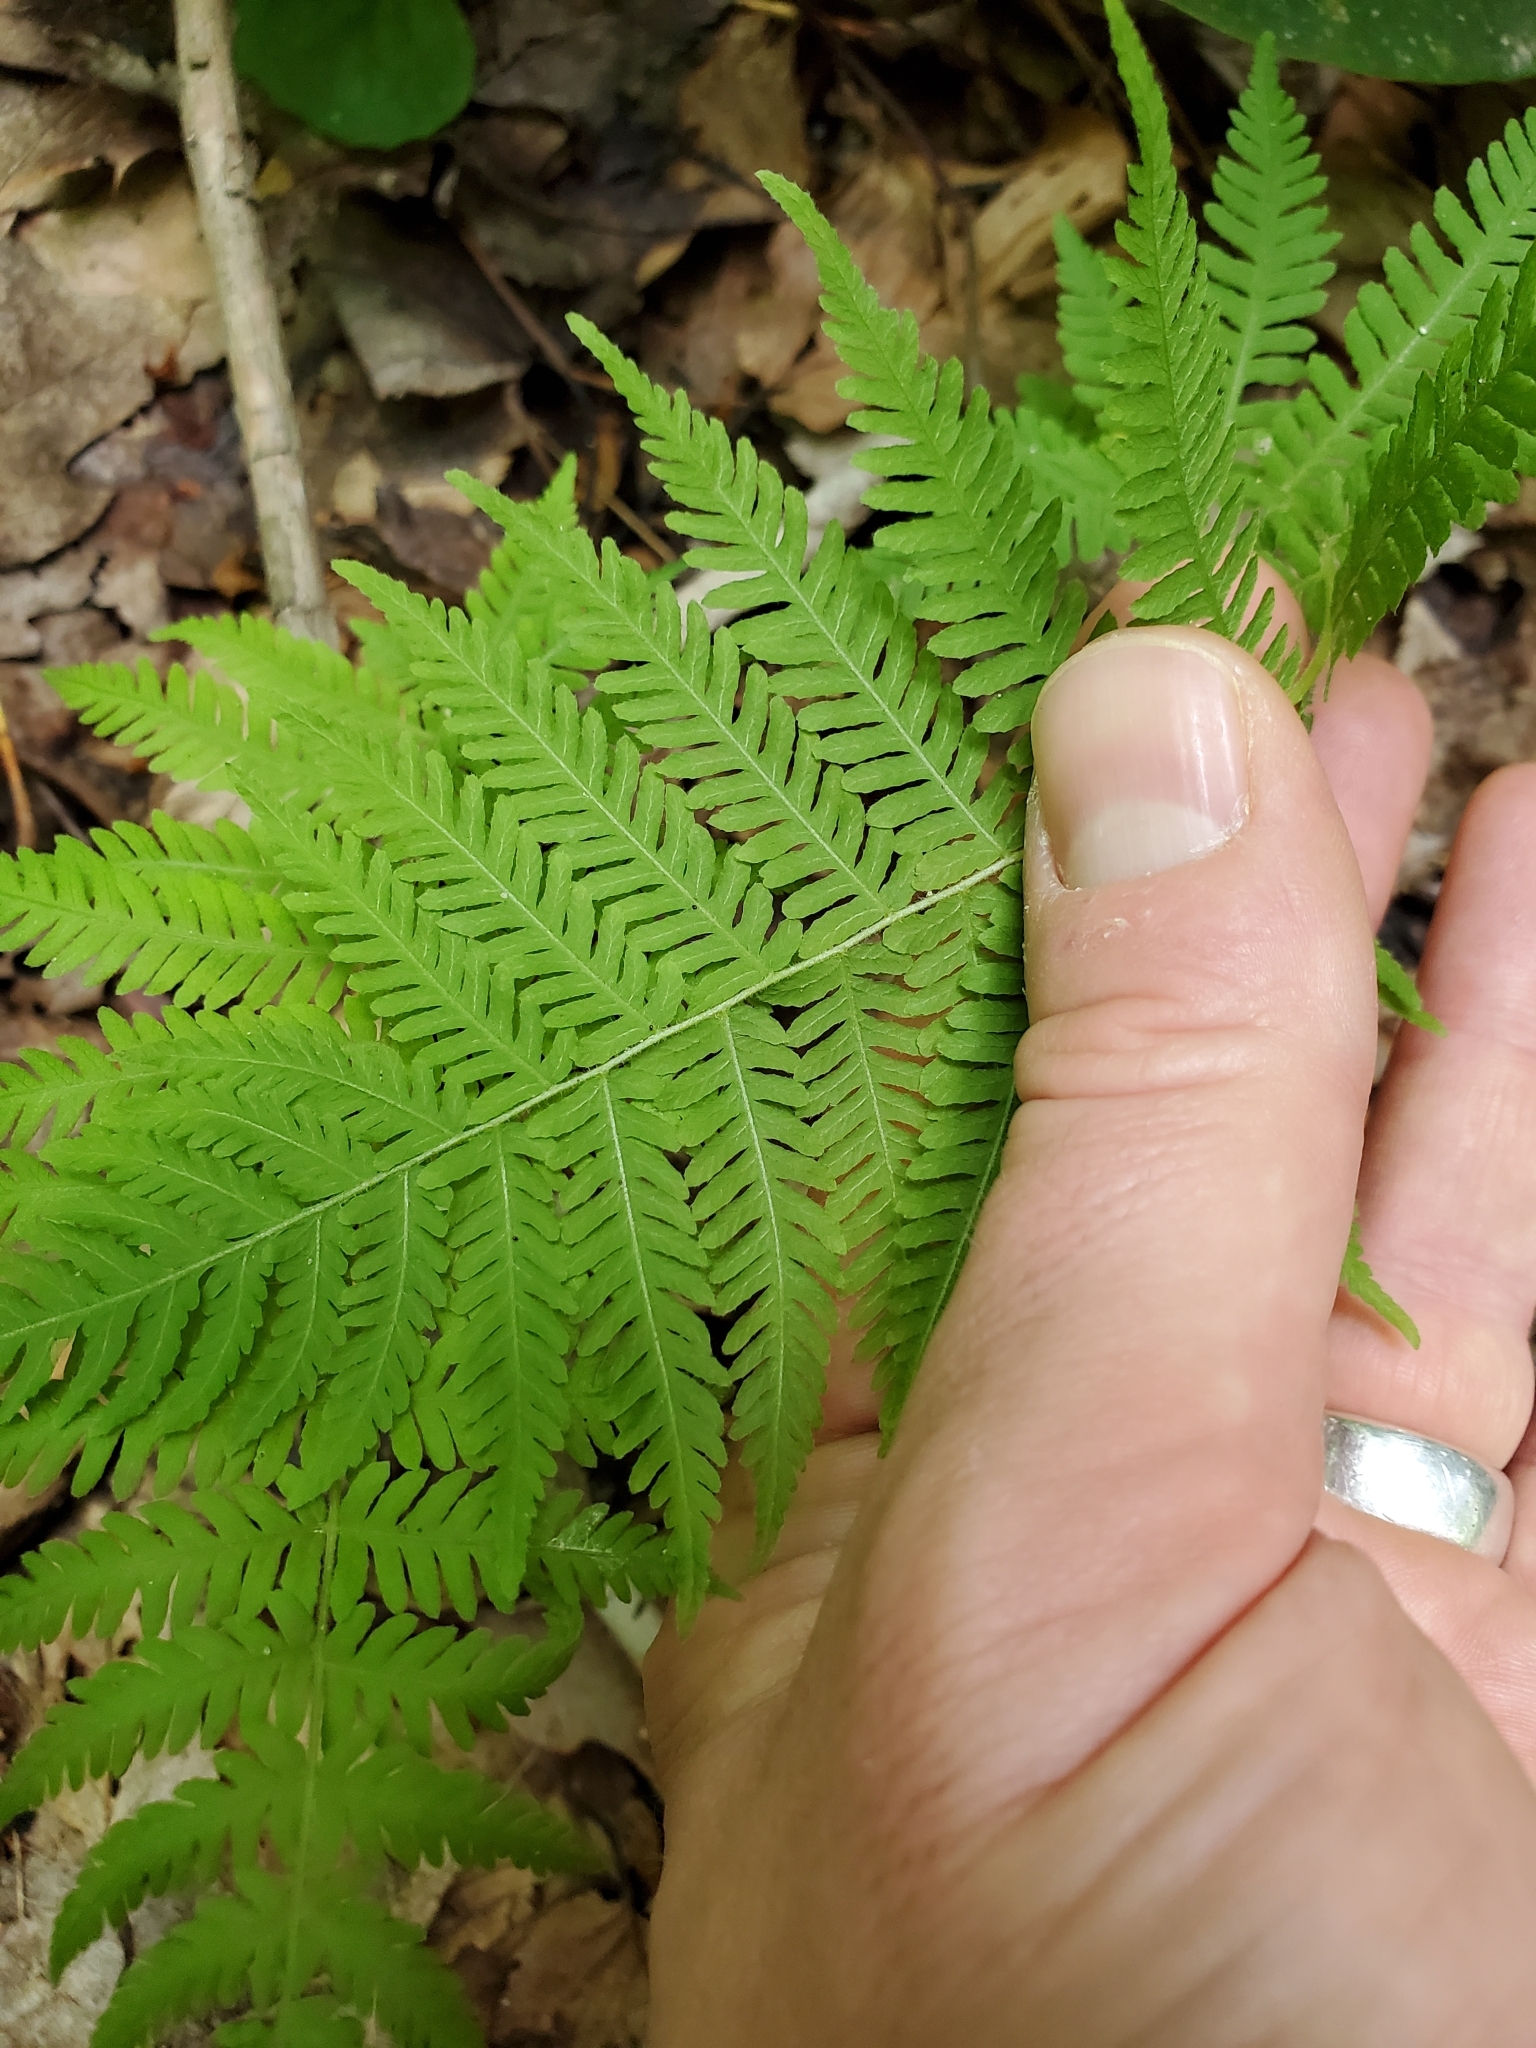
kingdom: Plantae
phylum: Tracheophyta
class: Polypodiopsida
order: Polypodiales
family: Thelypteridaceae
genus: Amauropelta
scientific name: Amauropelta noveboracensis
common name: New york fern
